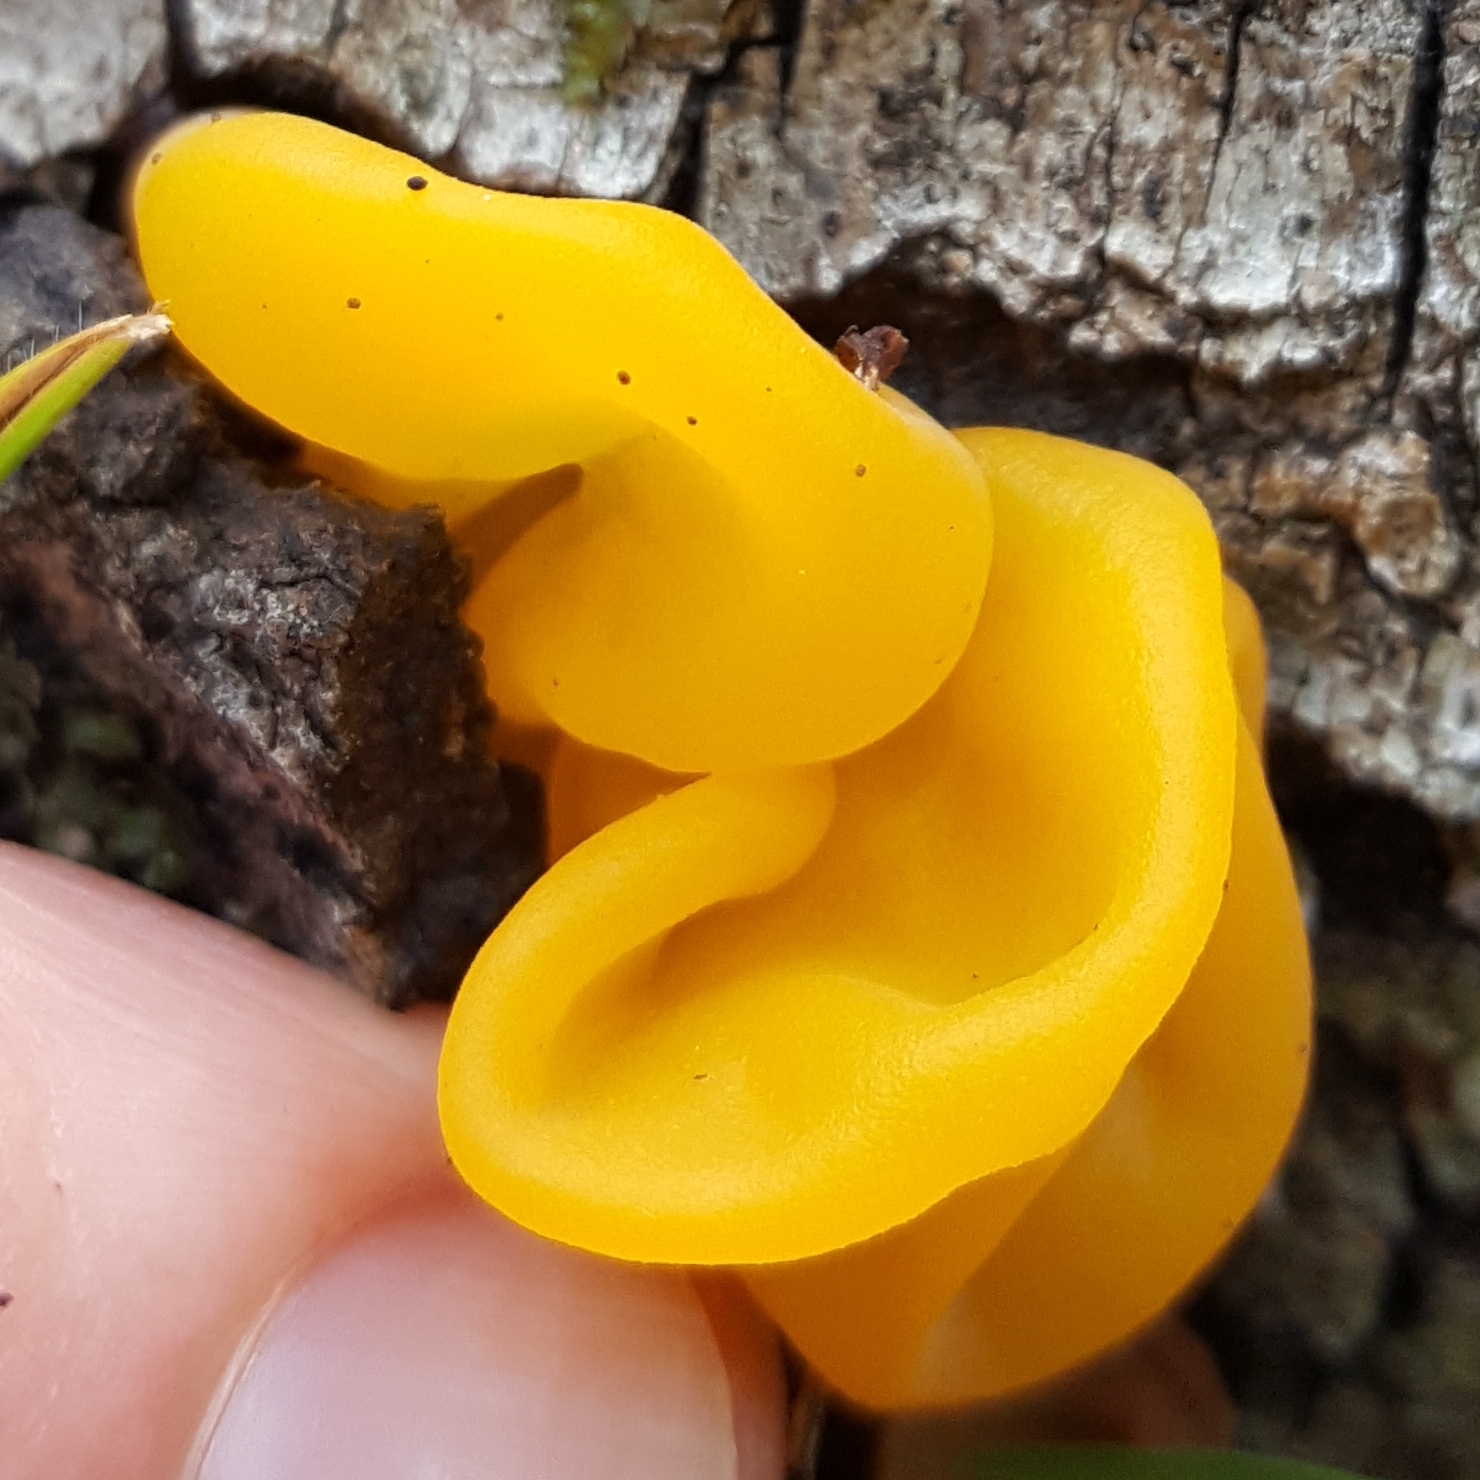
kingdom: Fungi
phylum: Basidiomycota
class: Tremellomycetes
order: Tremellales
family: Tremellaceae
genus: Tremella
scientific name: Tremella mesenterica
